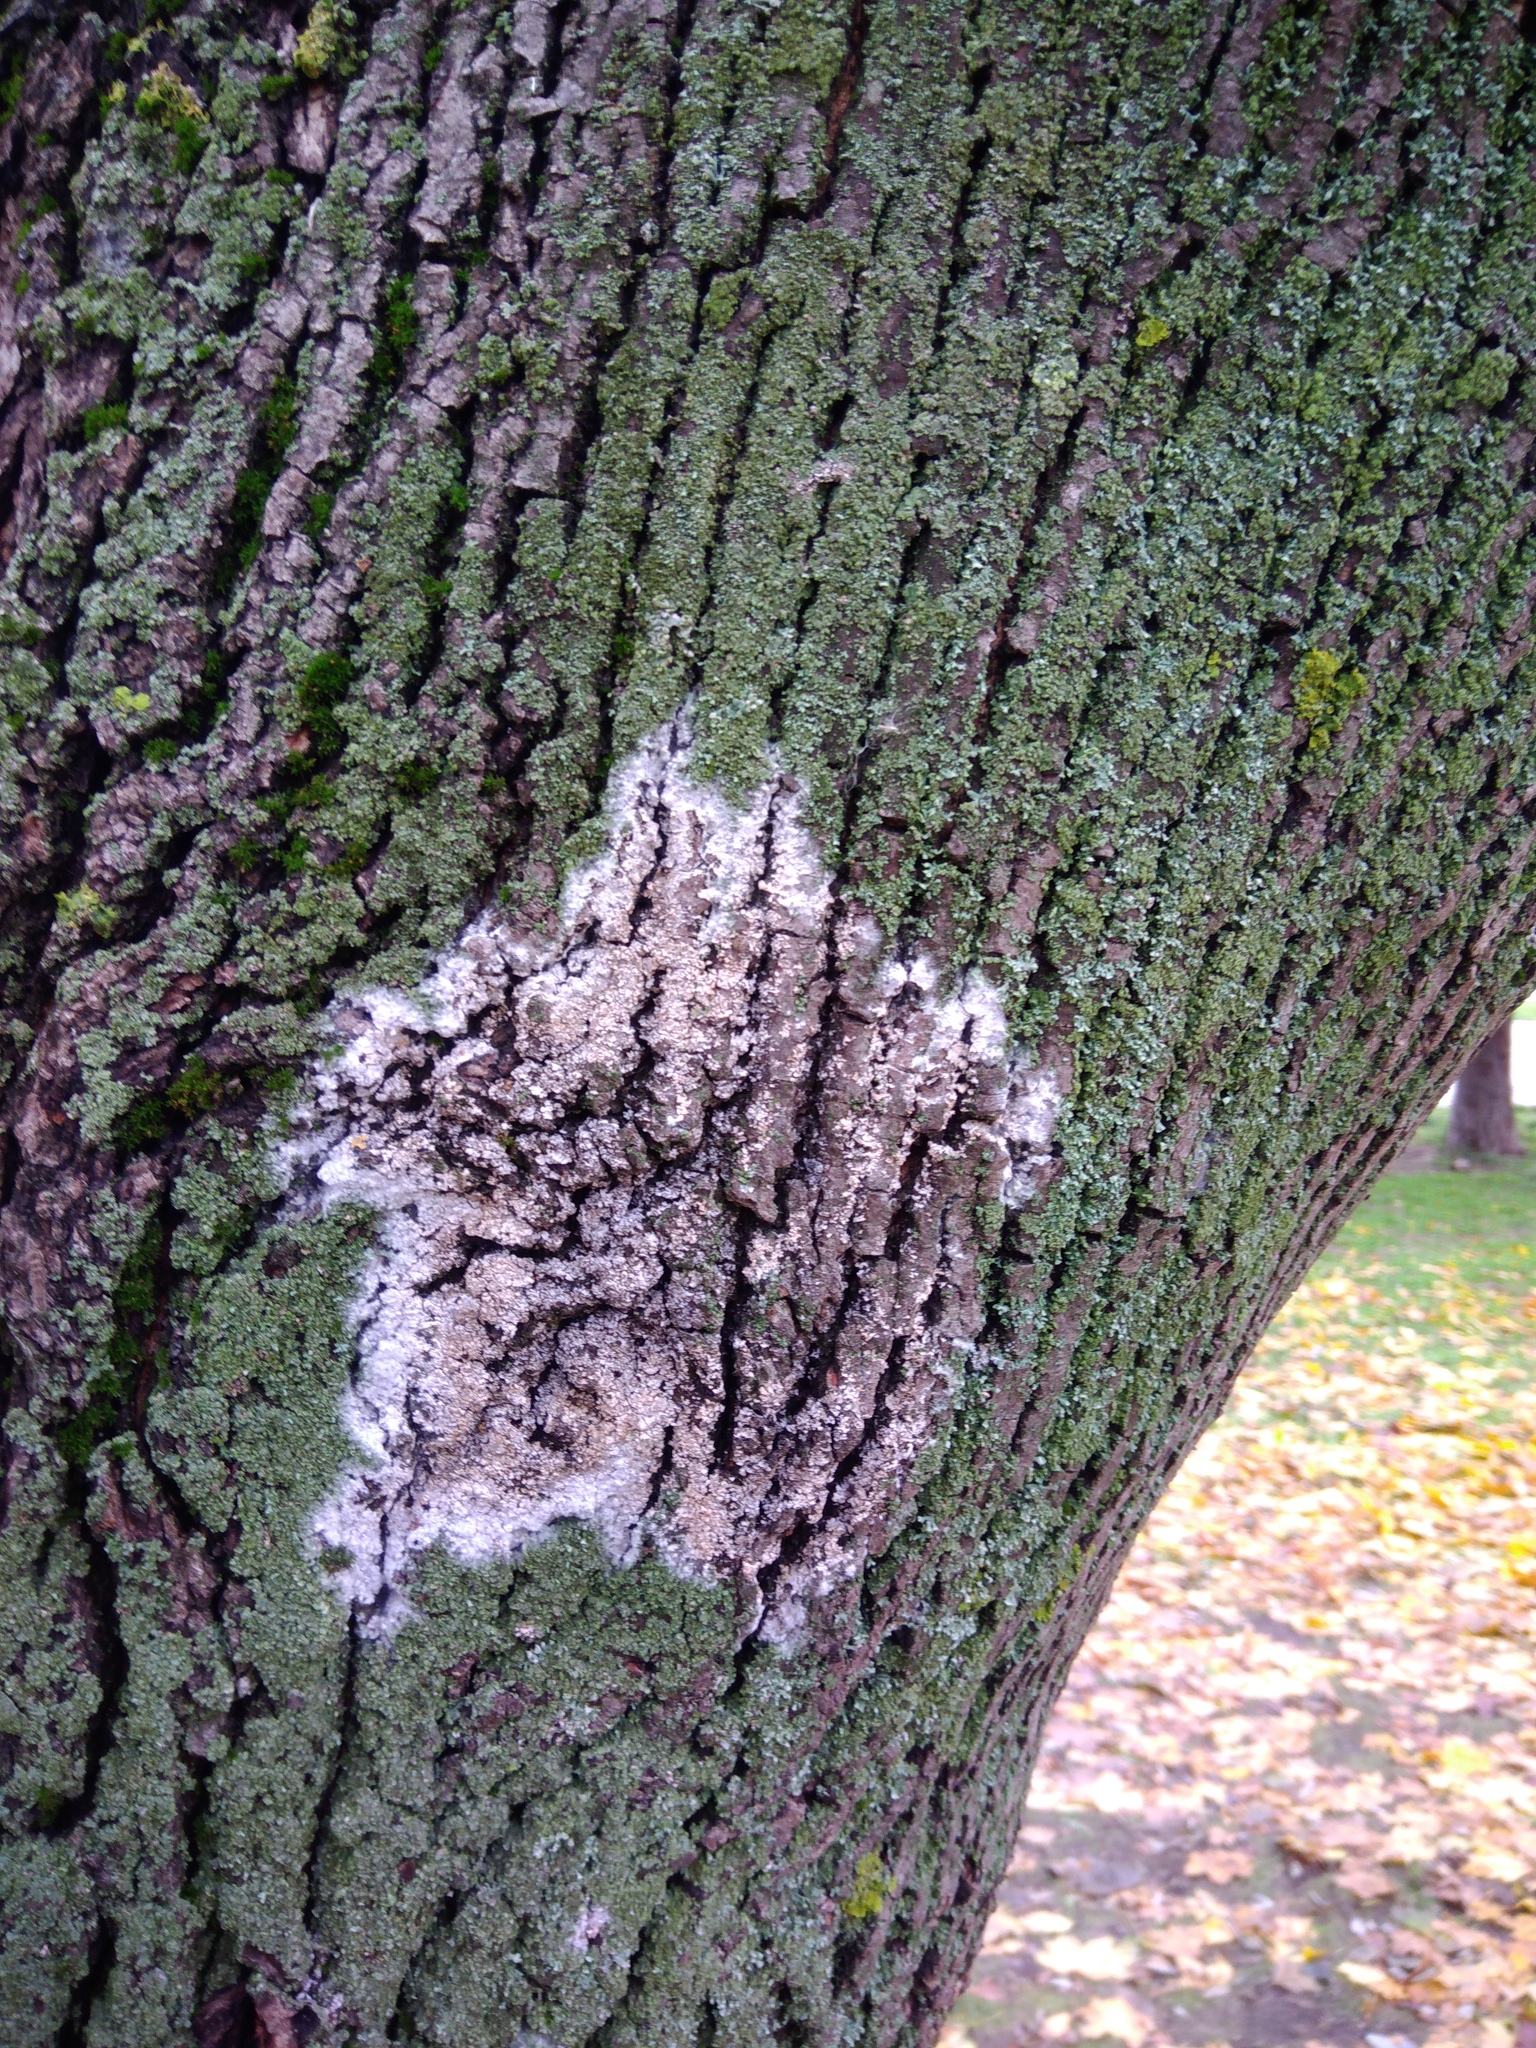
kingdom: Fungi
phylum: Basidiomycota
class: Agaricomycetes
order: Atheliales
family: Atheliaceae
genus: Athelia
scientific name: Athelia arachnoidea
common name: Candelabra duster
